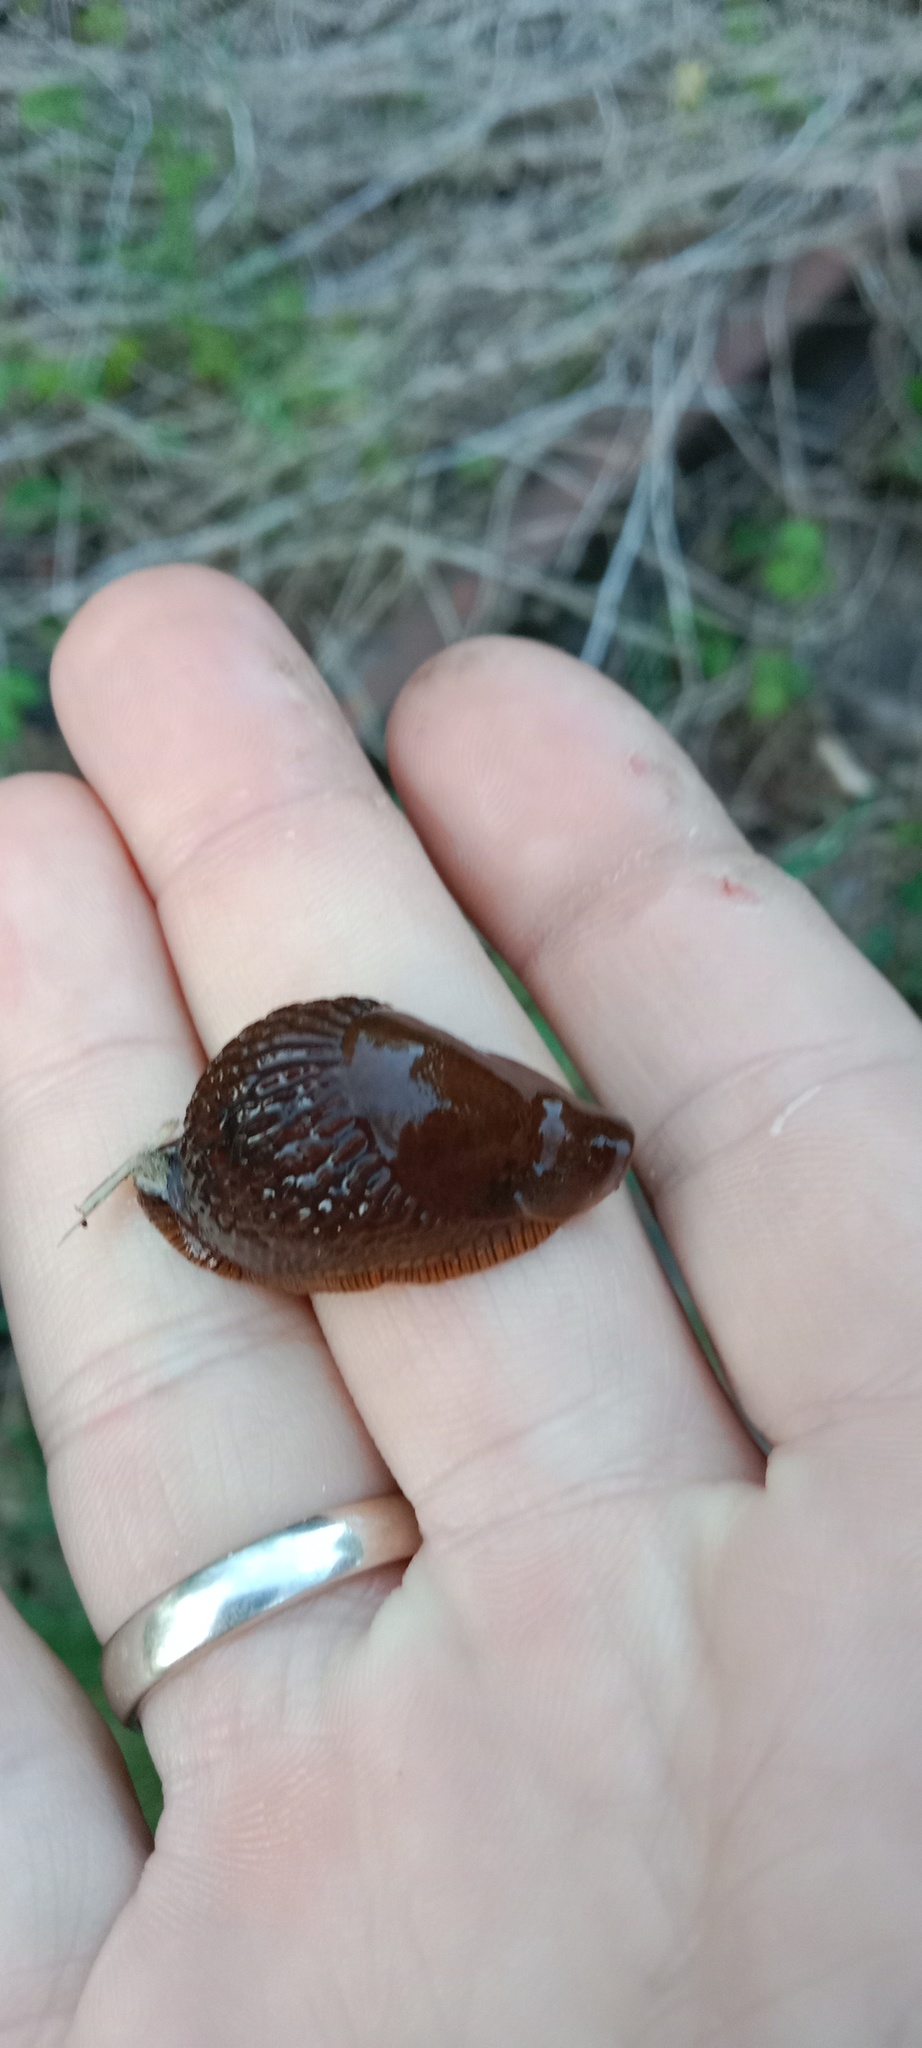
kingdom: Animalia
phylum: Mollusca
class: Gastropoda
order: Stylommatophora
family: Arionidae
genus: Arion
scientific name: Arion vulgaris
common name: Lusitanian slug
